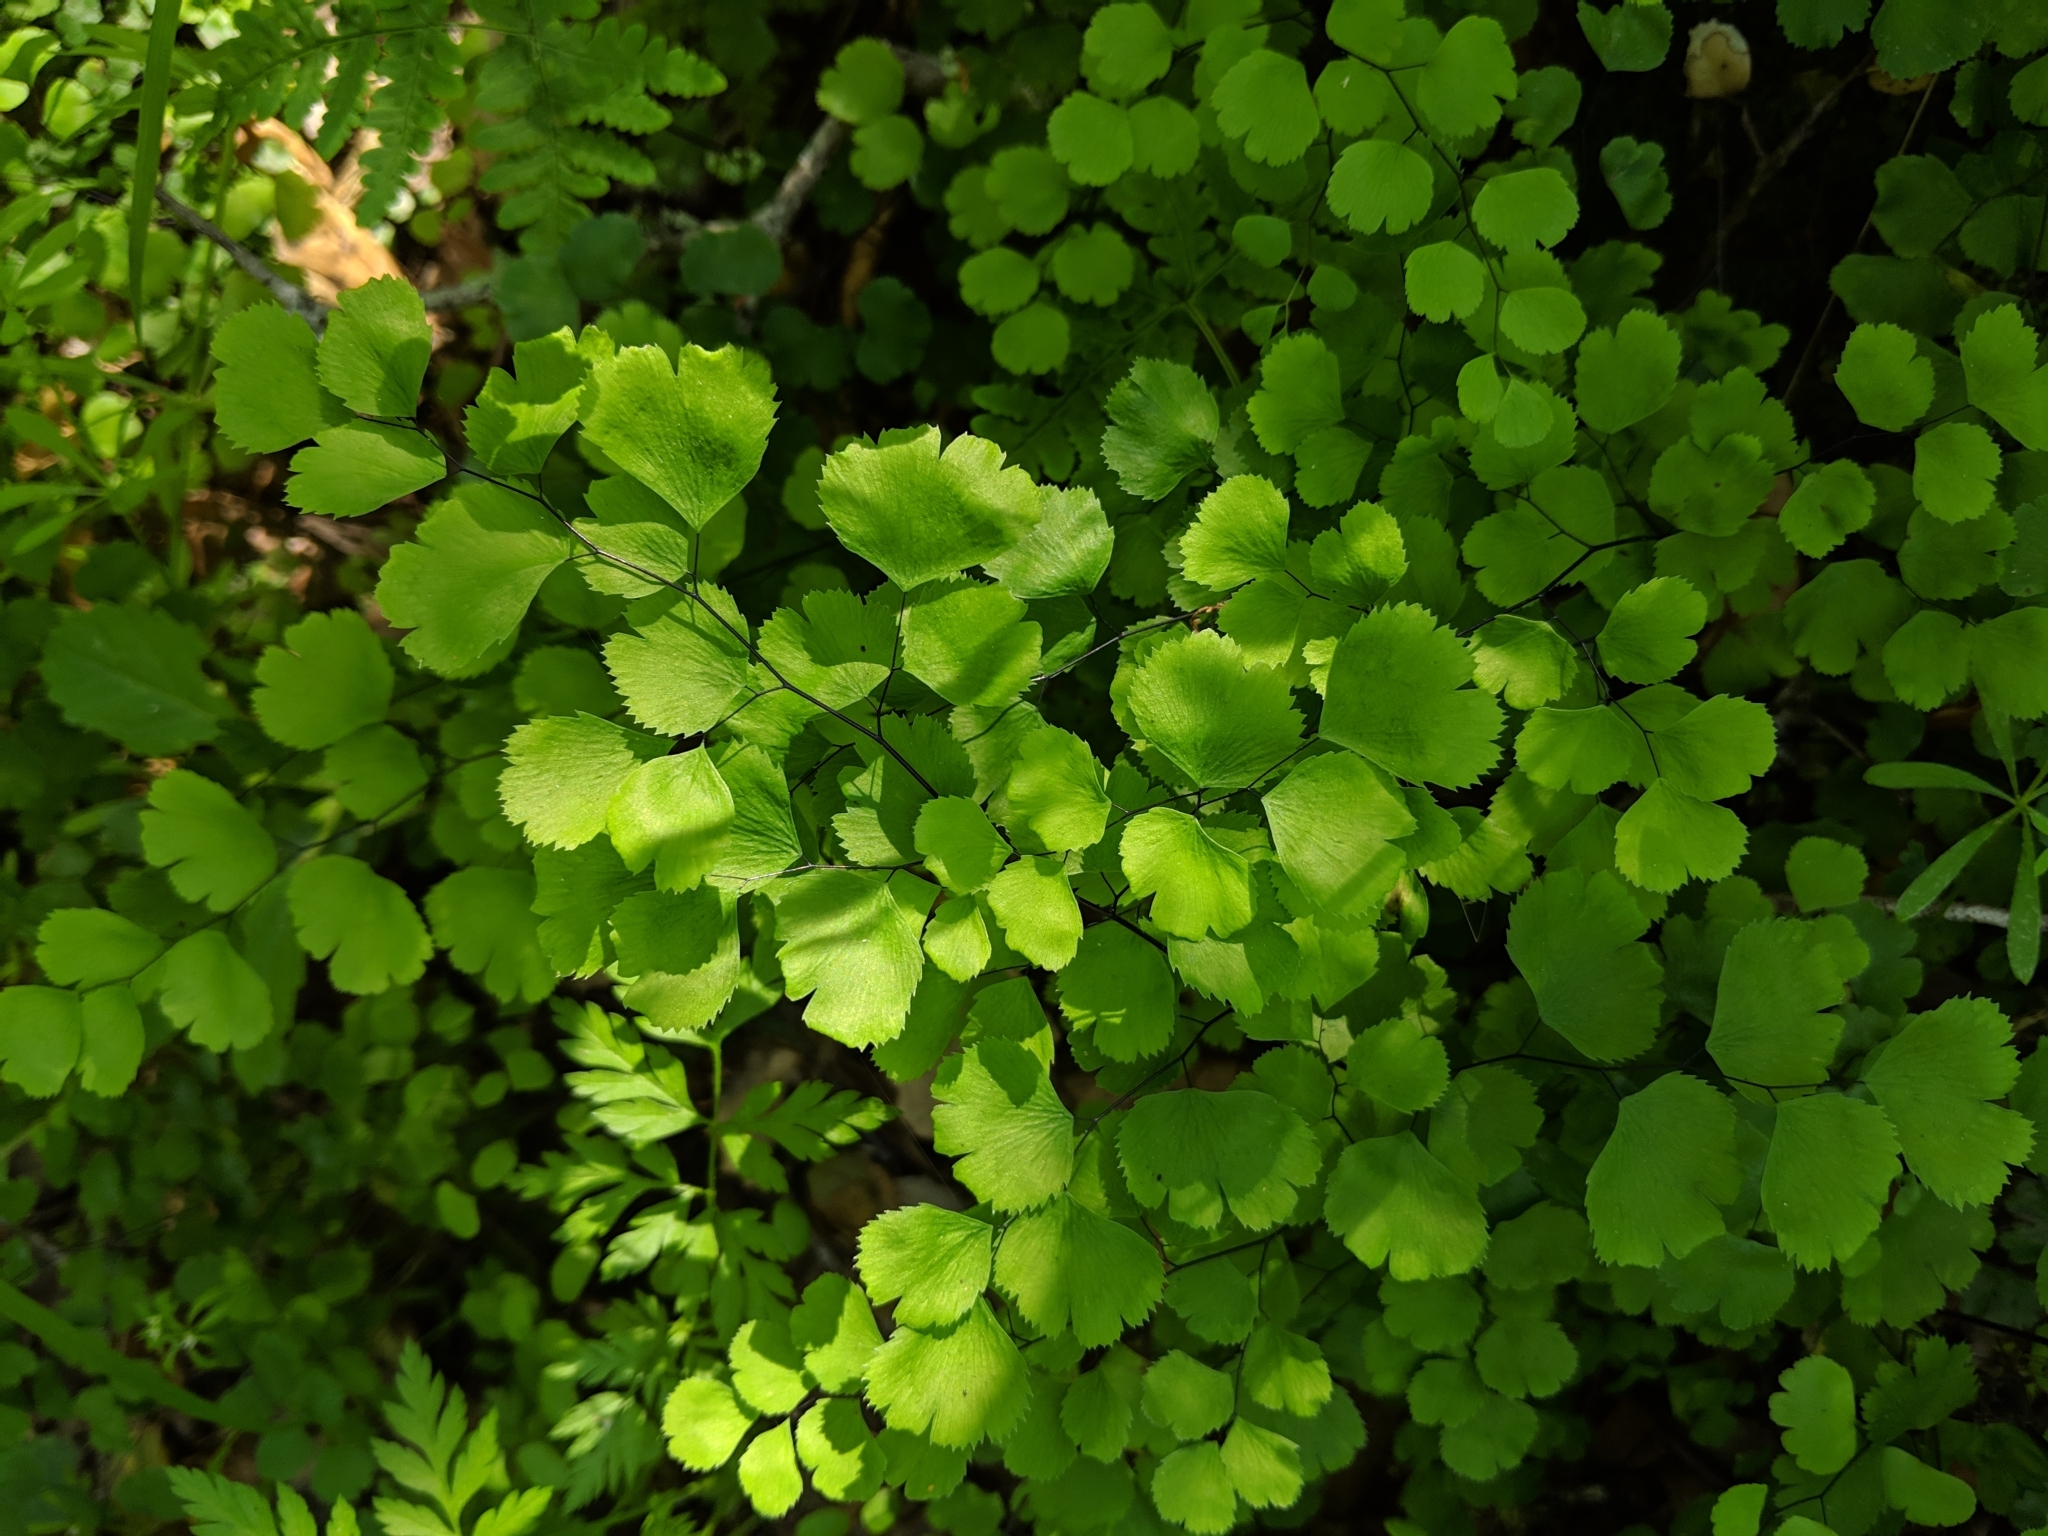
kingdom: Plantae
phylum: Tracheophyta
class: Polypodiopsida
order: Polypodiales
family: Pteridaceae
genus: Adiantum
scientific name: Adiantum jordanii
